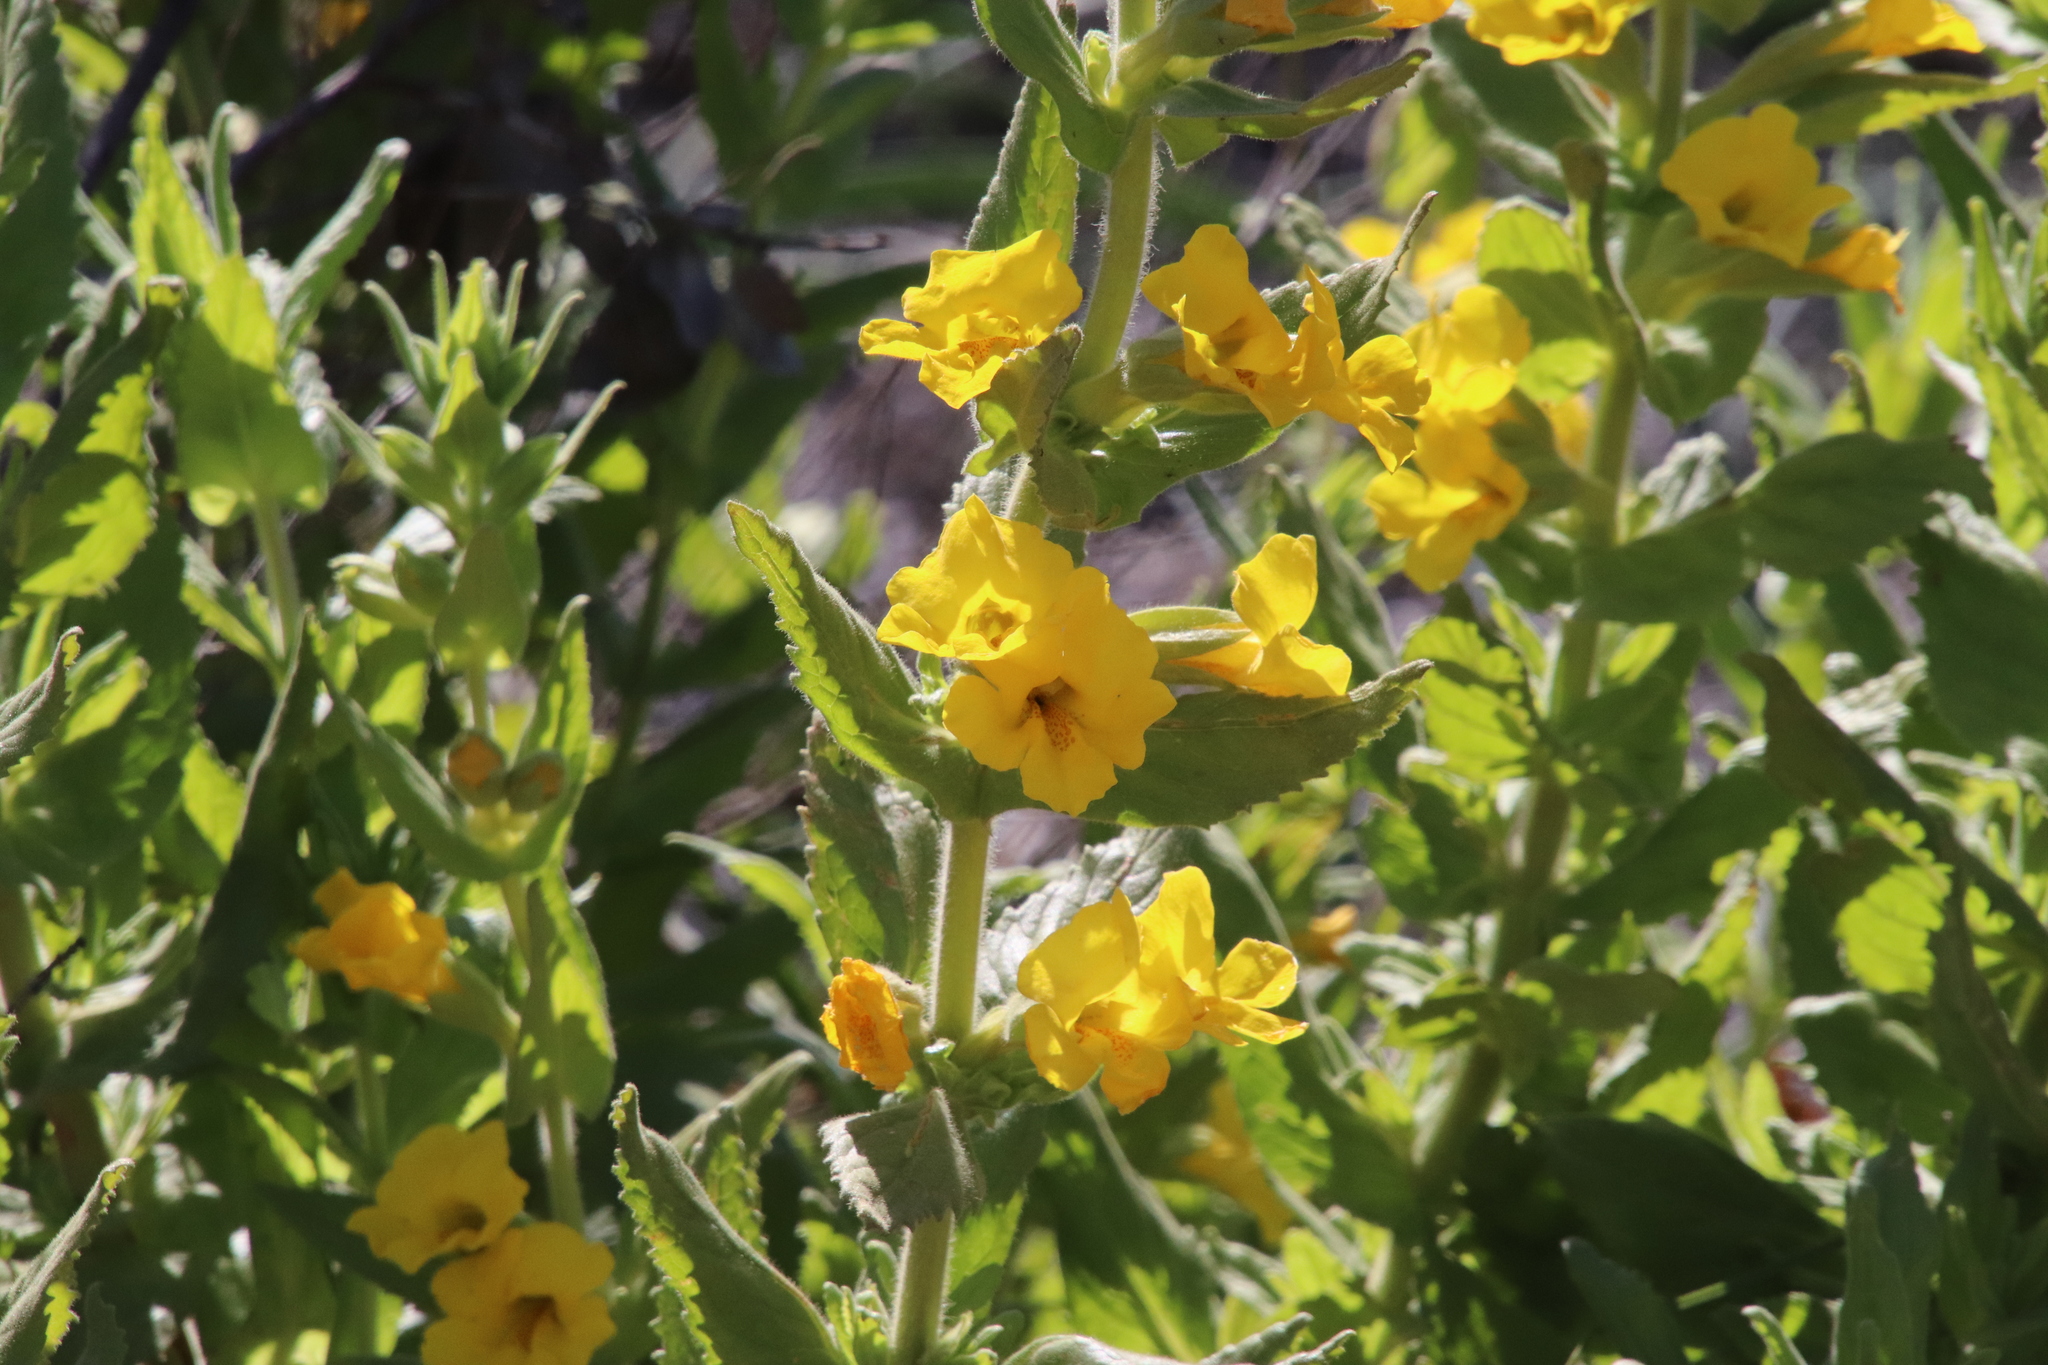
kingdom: Plantae
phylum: Tracheophyta
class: Magnoliopsida
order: Lamiales
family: Phrymaceae
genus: Diplacus
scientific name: Diplacus clevelandii
